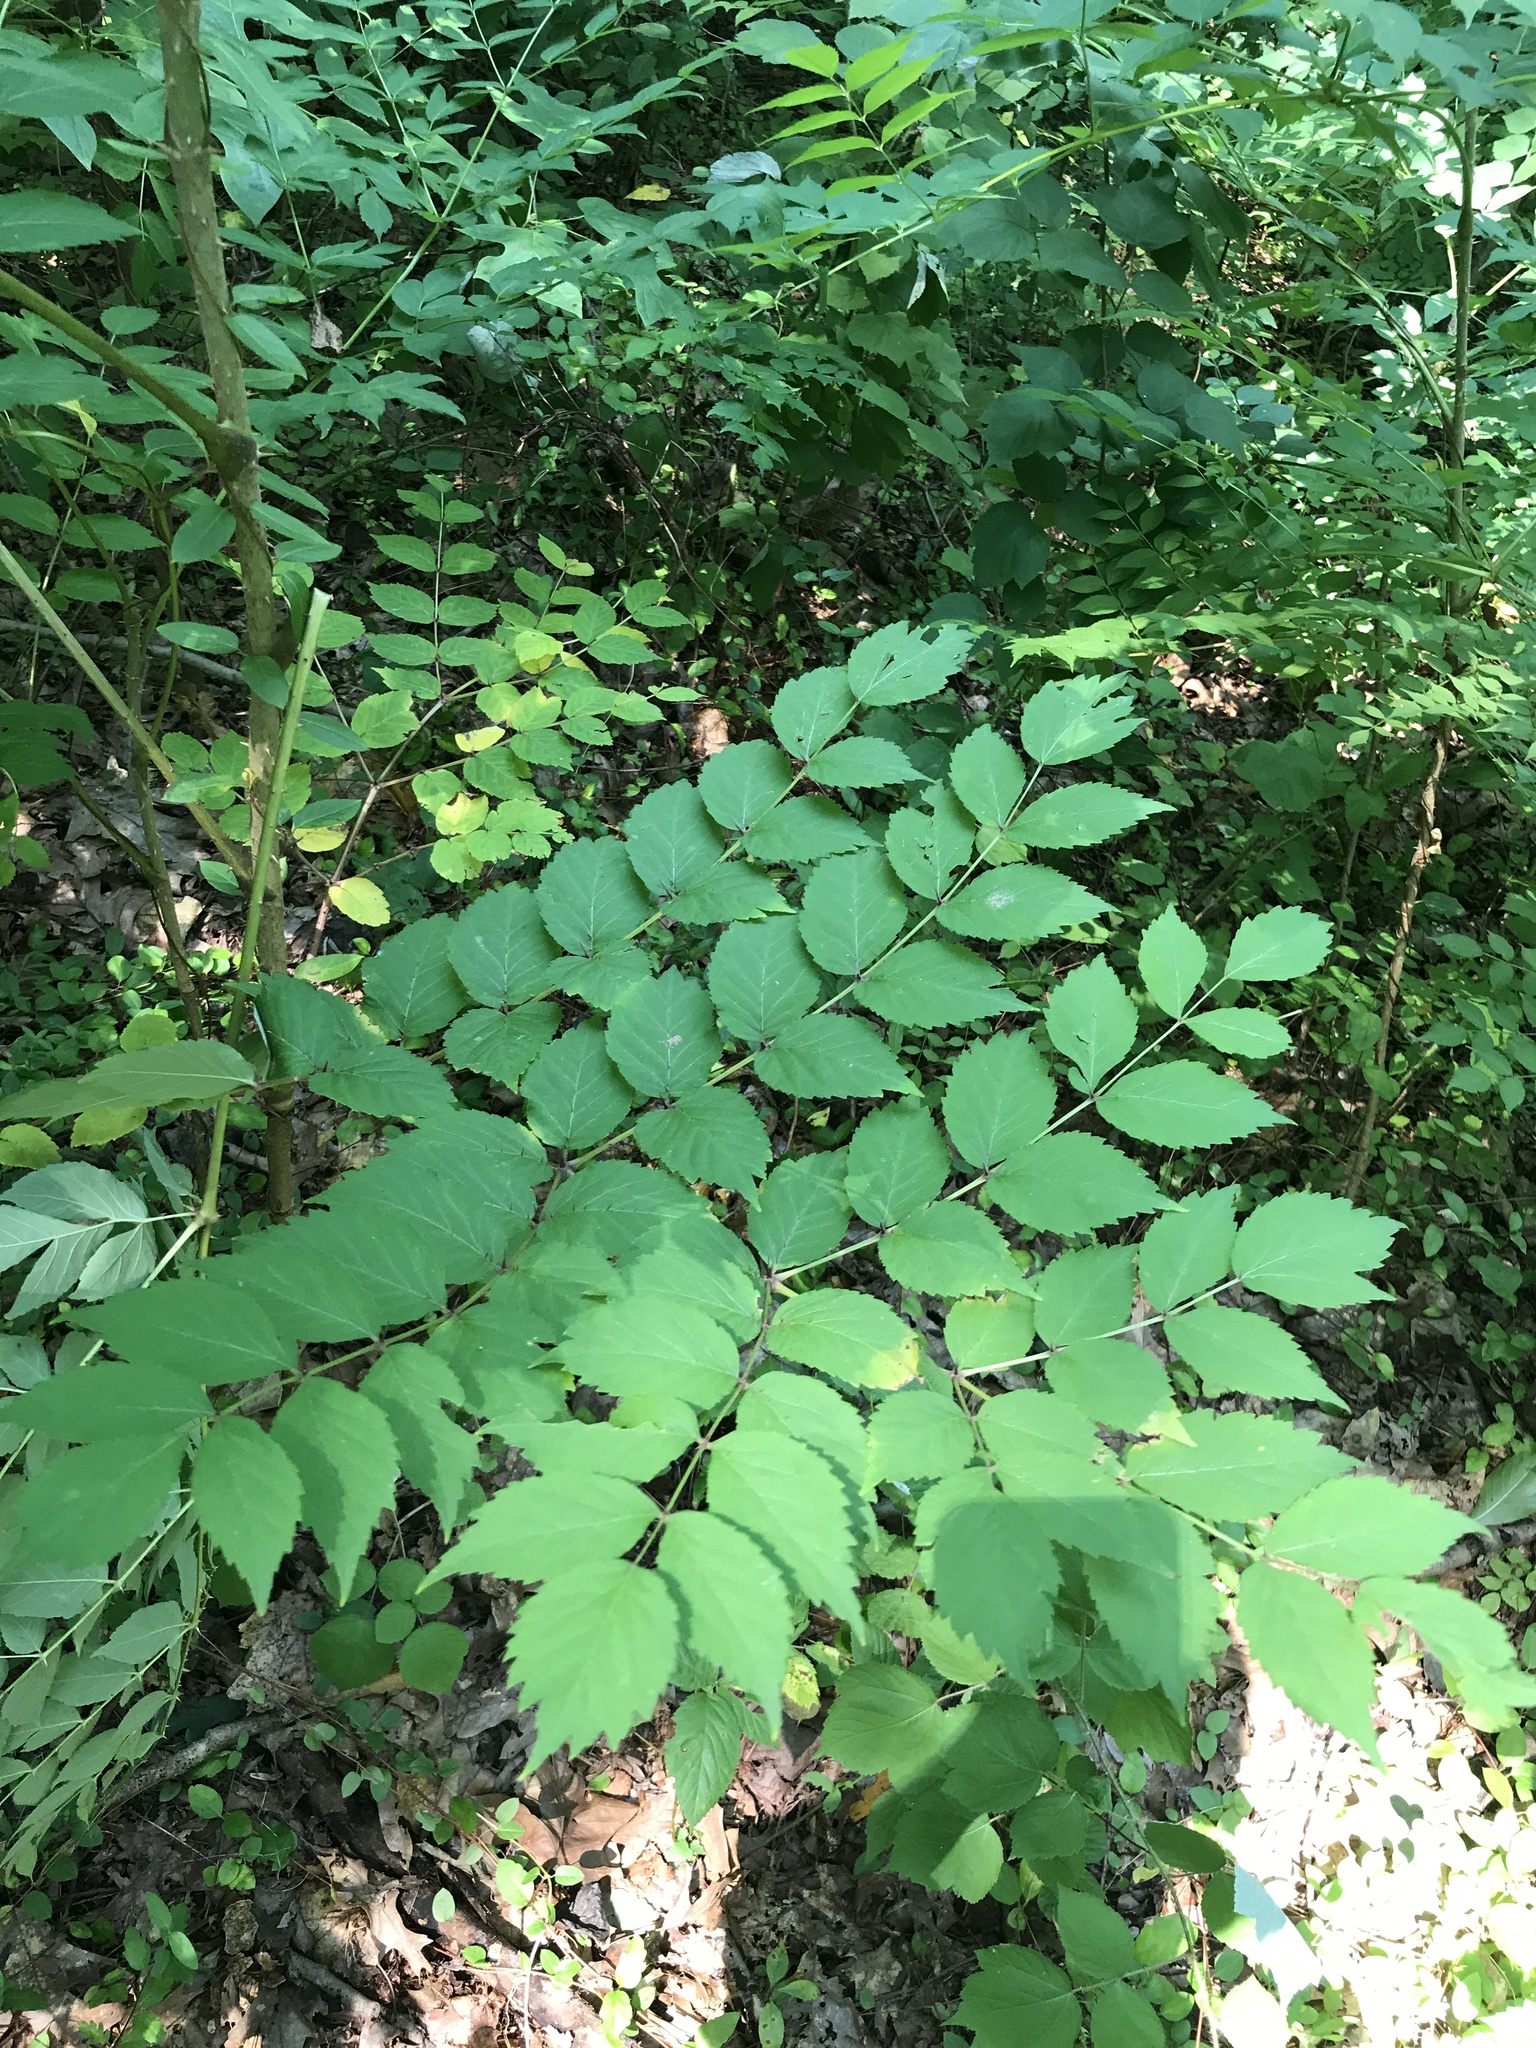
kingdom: Plantae
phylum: Tracheophyta
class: Magnoliopsida
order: Apiales
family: Araliaceae
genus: Aralia
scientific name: Aralia elata
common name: Japanese angelica-tree
